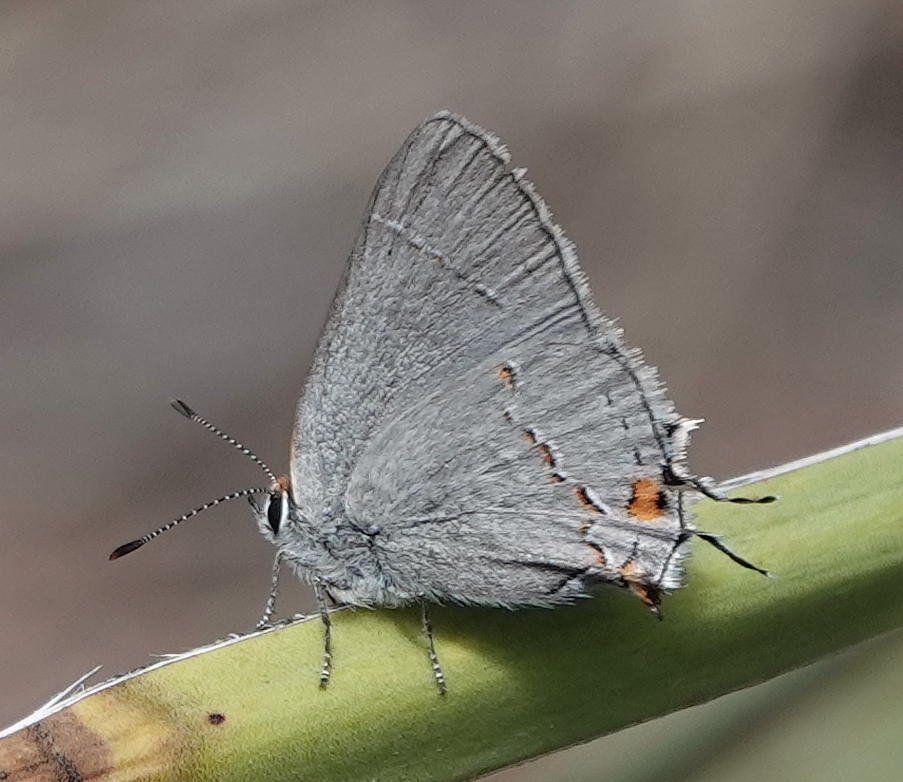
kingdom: Animalia
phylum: Arthropoda
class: Insecta
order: Lepidoptera
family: Lycaenidae
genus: Strymon
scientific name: Strymon melinus
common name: Gray hairstreak
